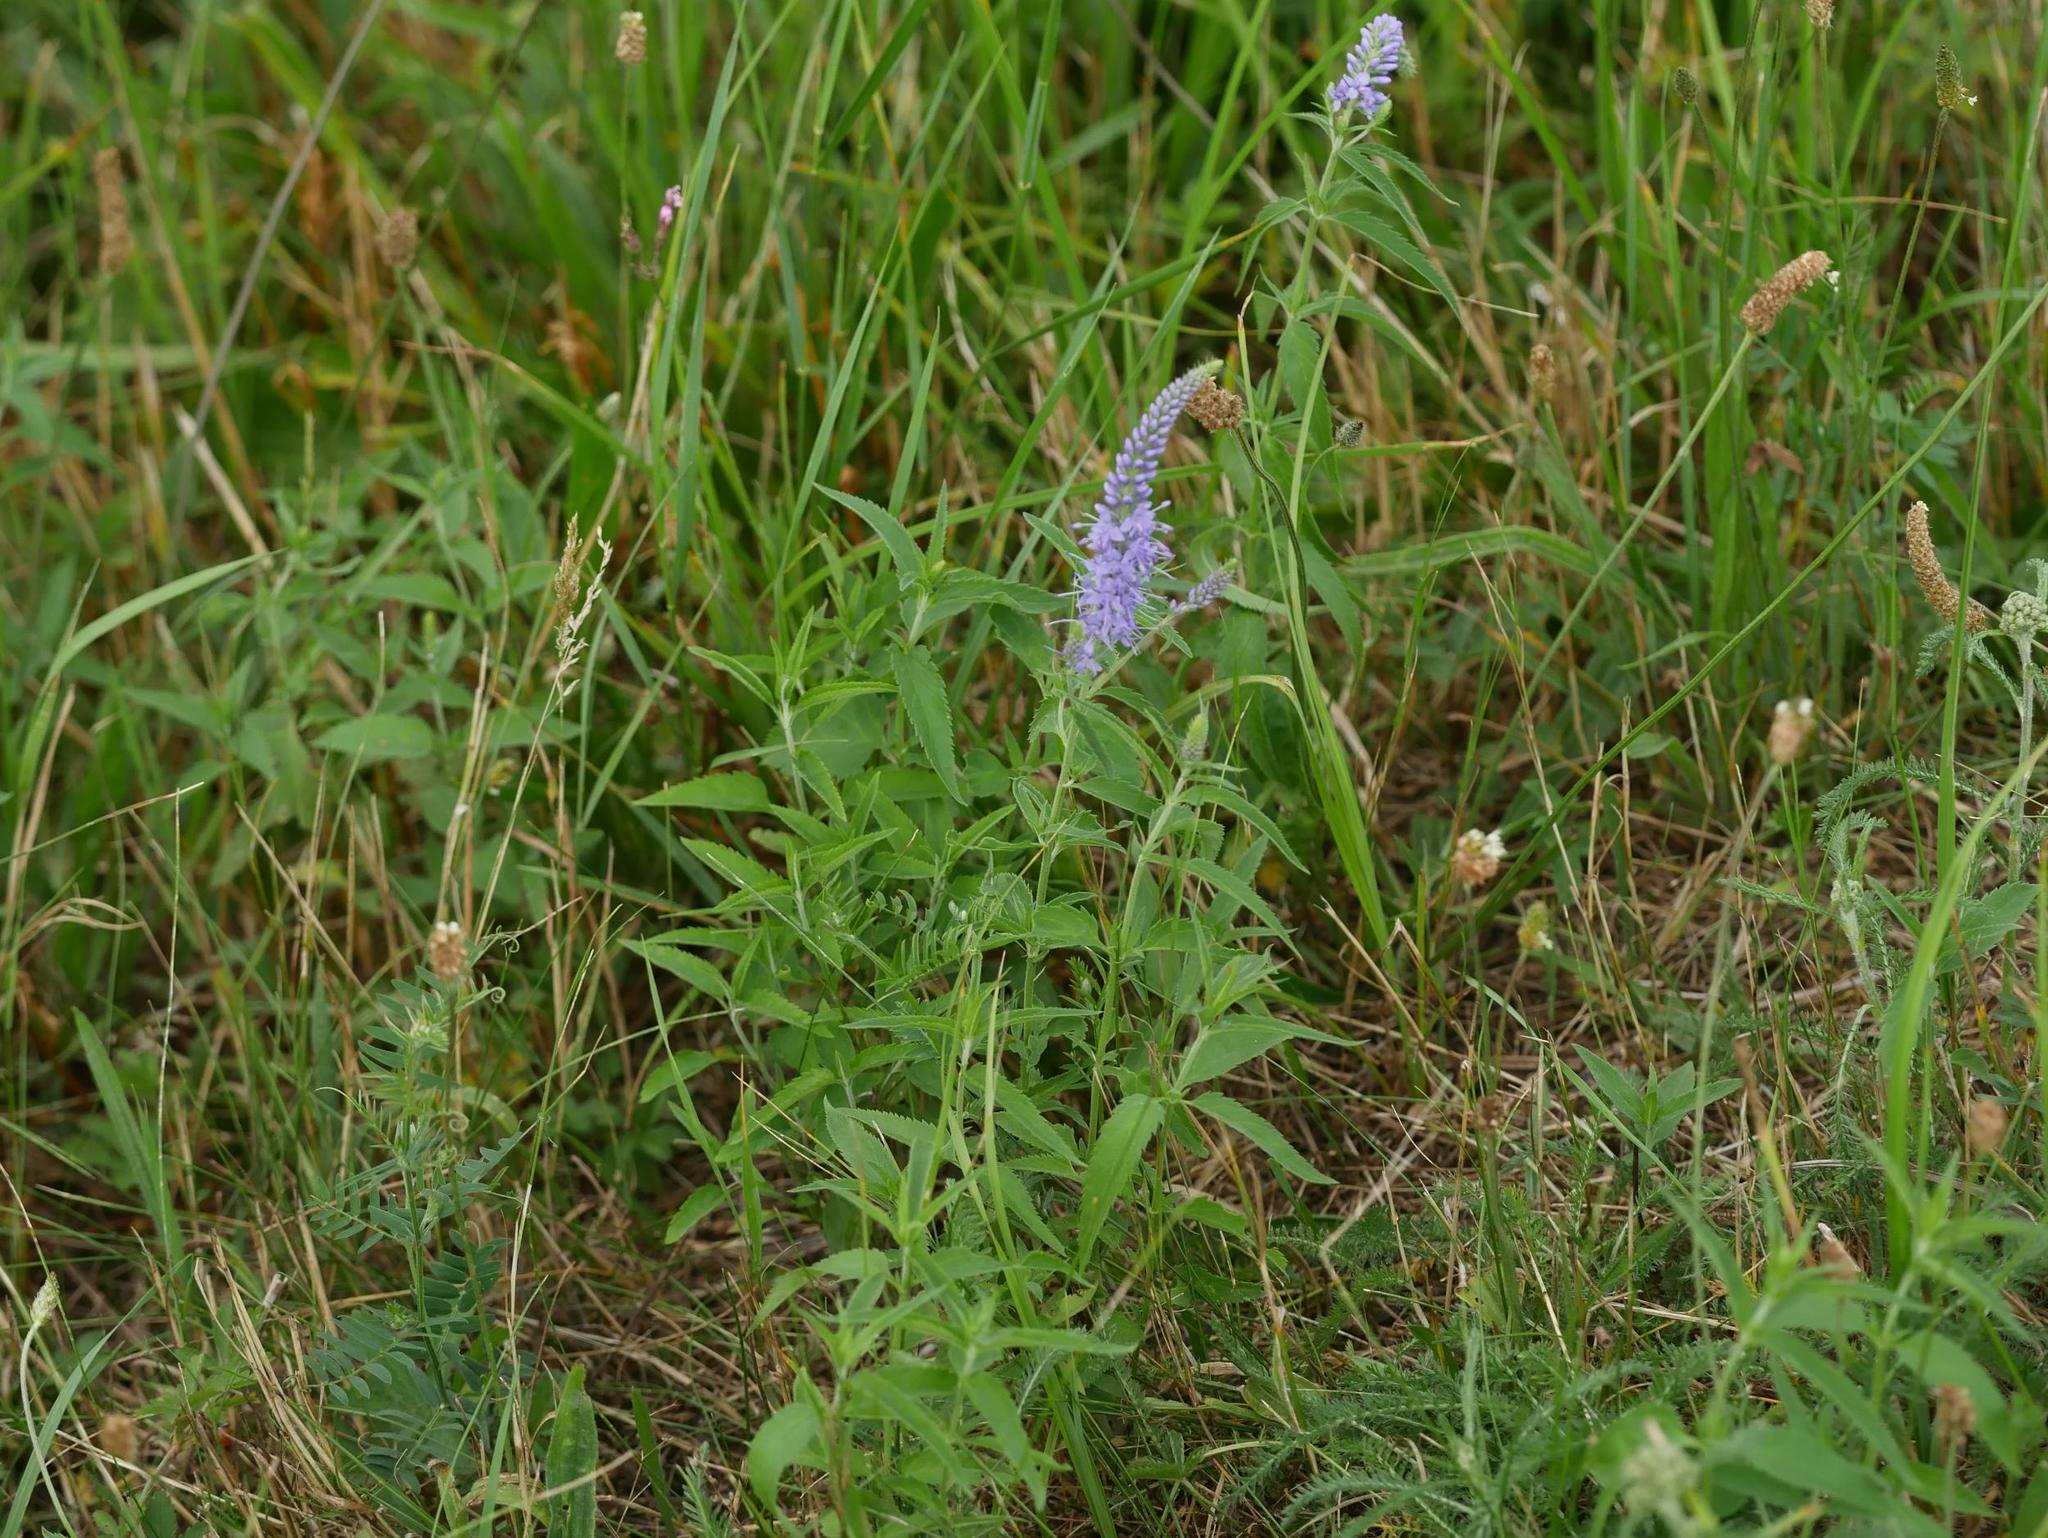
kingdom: Plantae
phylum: Tracheophyta
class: Magnoliopsida
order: Lamiales
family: Plantaginaceae
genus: Veronica
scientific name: Veronica longifolia
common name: Garden speedwell
